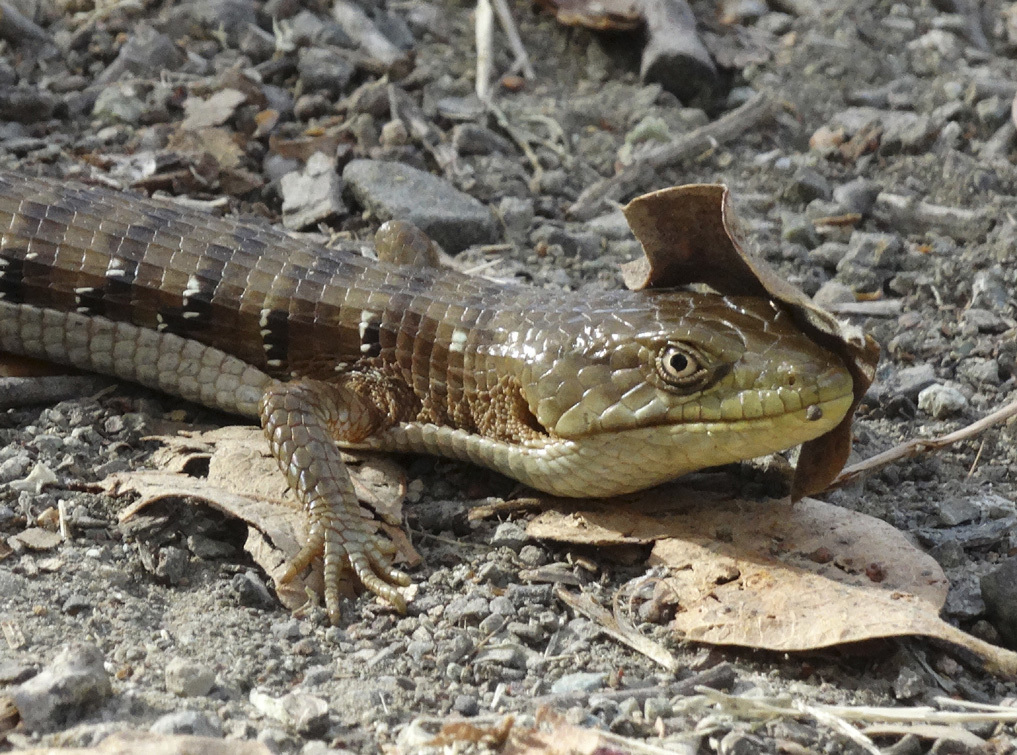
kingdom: Animalia
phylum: Chordata
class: Squamata
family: Anguidae
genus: Elgaria
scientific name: Elgaria multicarinata
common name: Southern alligator lizard
